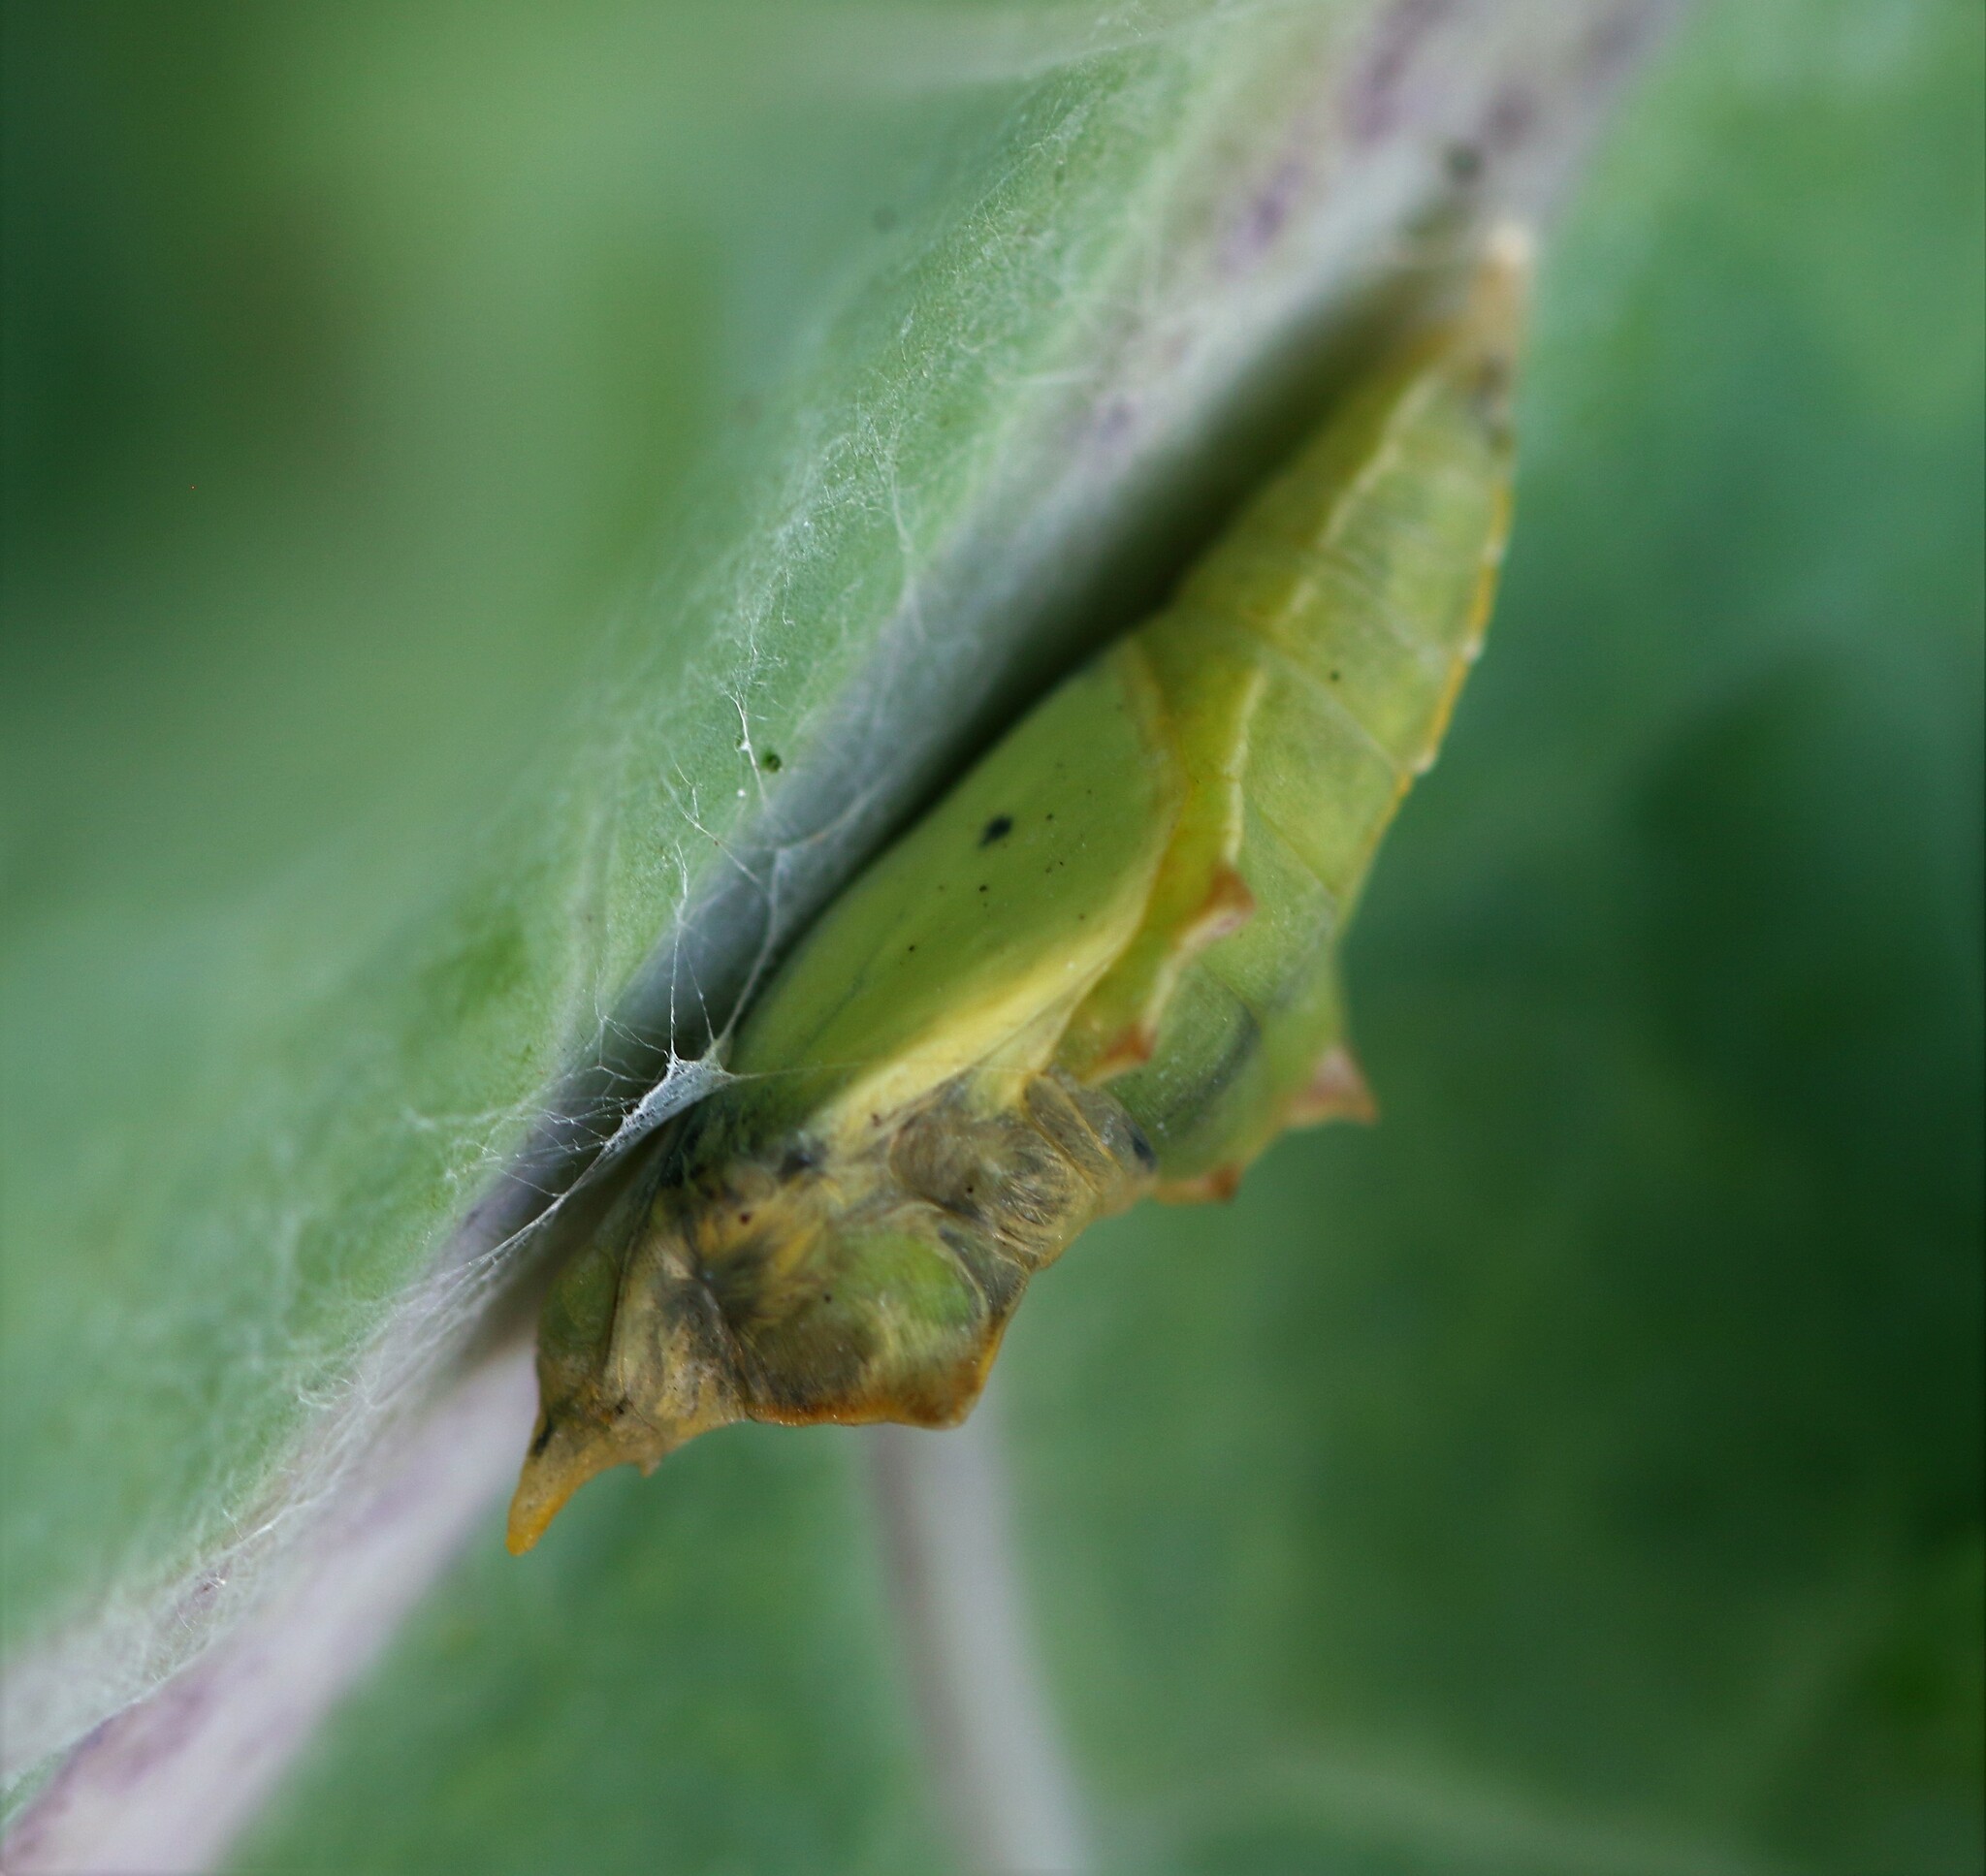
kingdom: Animalia
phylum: Arthropoda
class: Insecta
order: Lepidoptera
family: Pieridae
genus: Pieris
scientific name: Pieris rapae
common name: Small white
